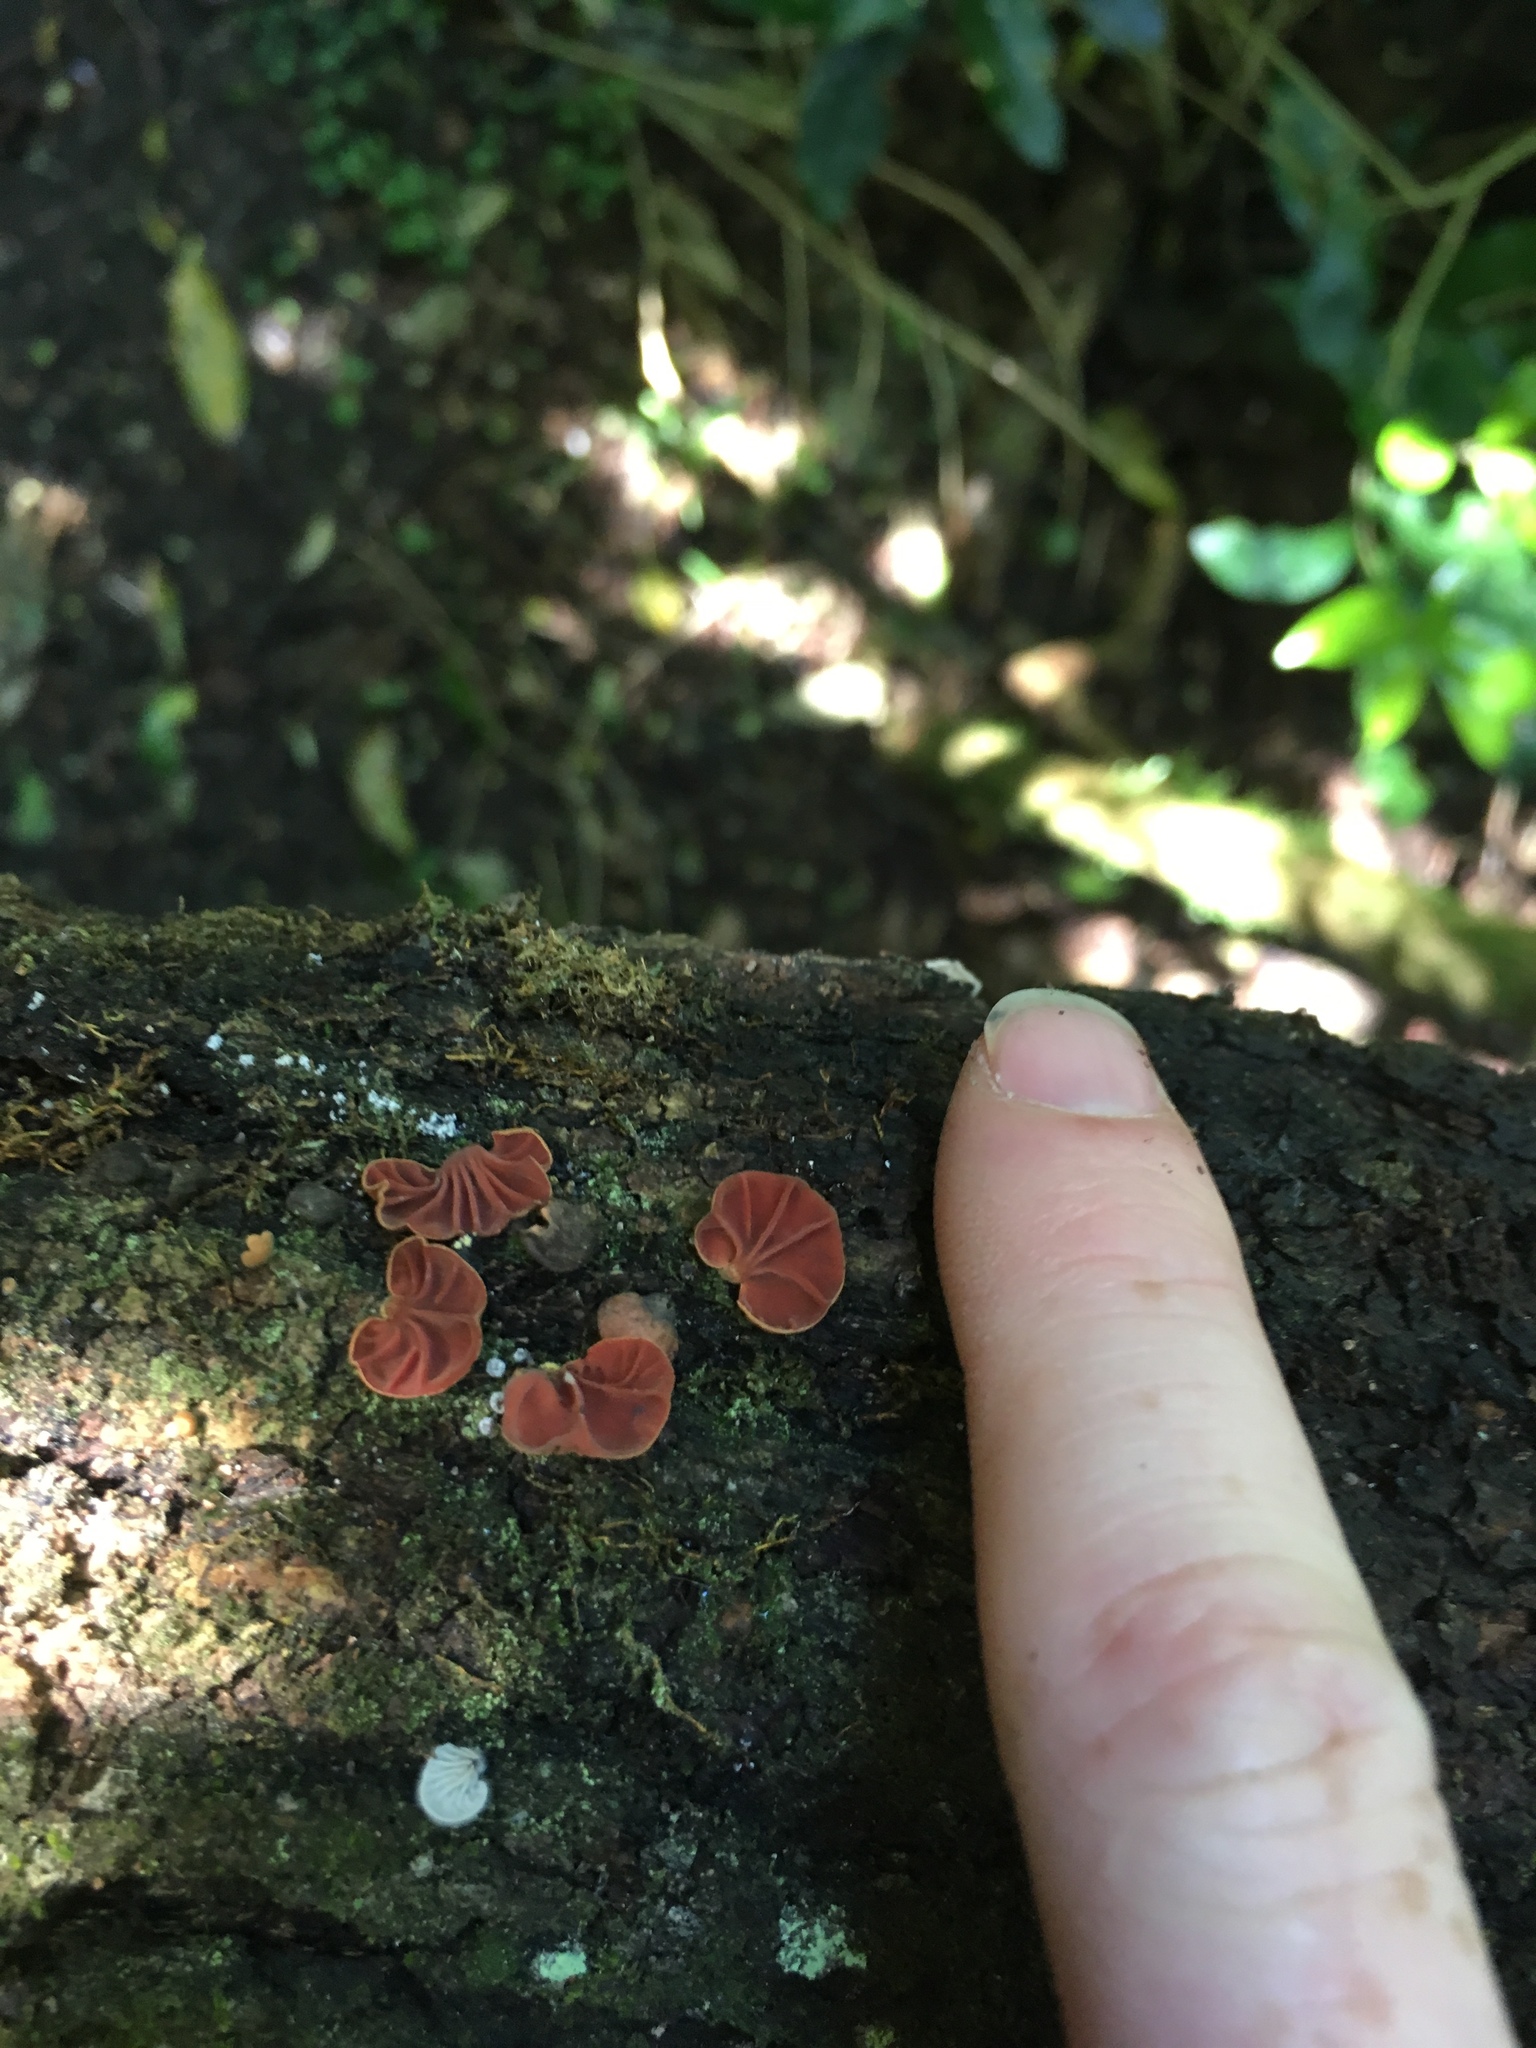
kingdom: Fungi
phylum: Basidiomycota
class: Agaricomycetes
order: Agaricales
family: Omphalotaceae
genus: Anthracophyllum
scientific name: Anthracophyllum archeri
